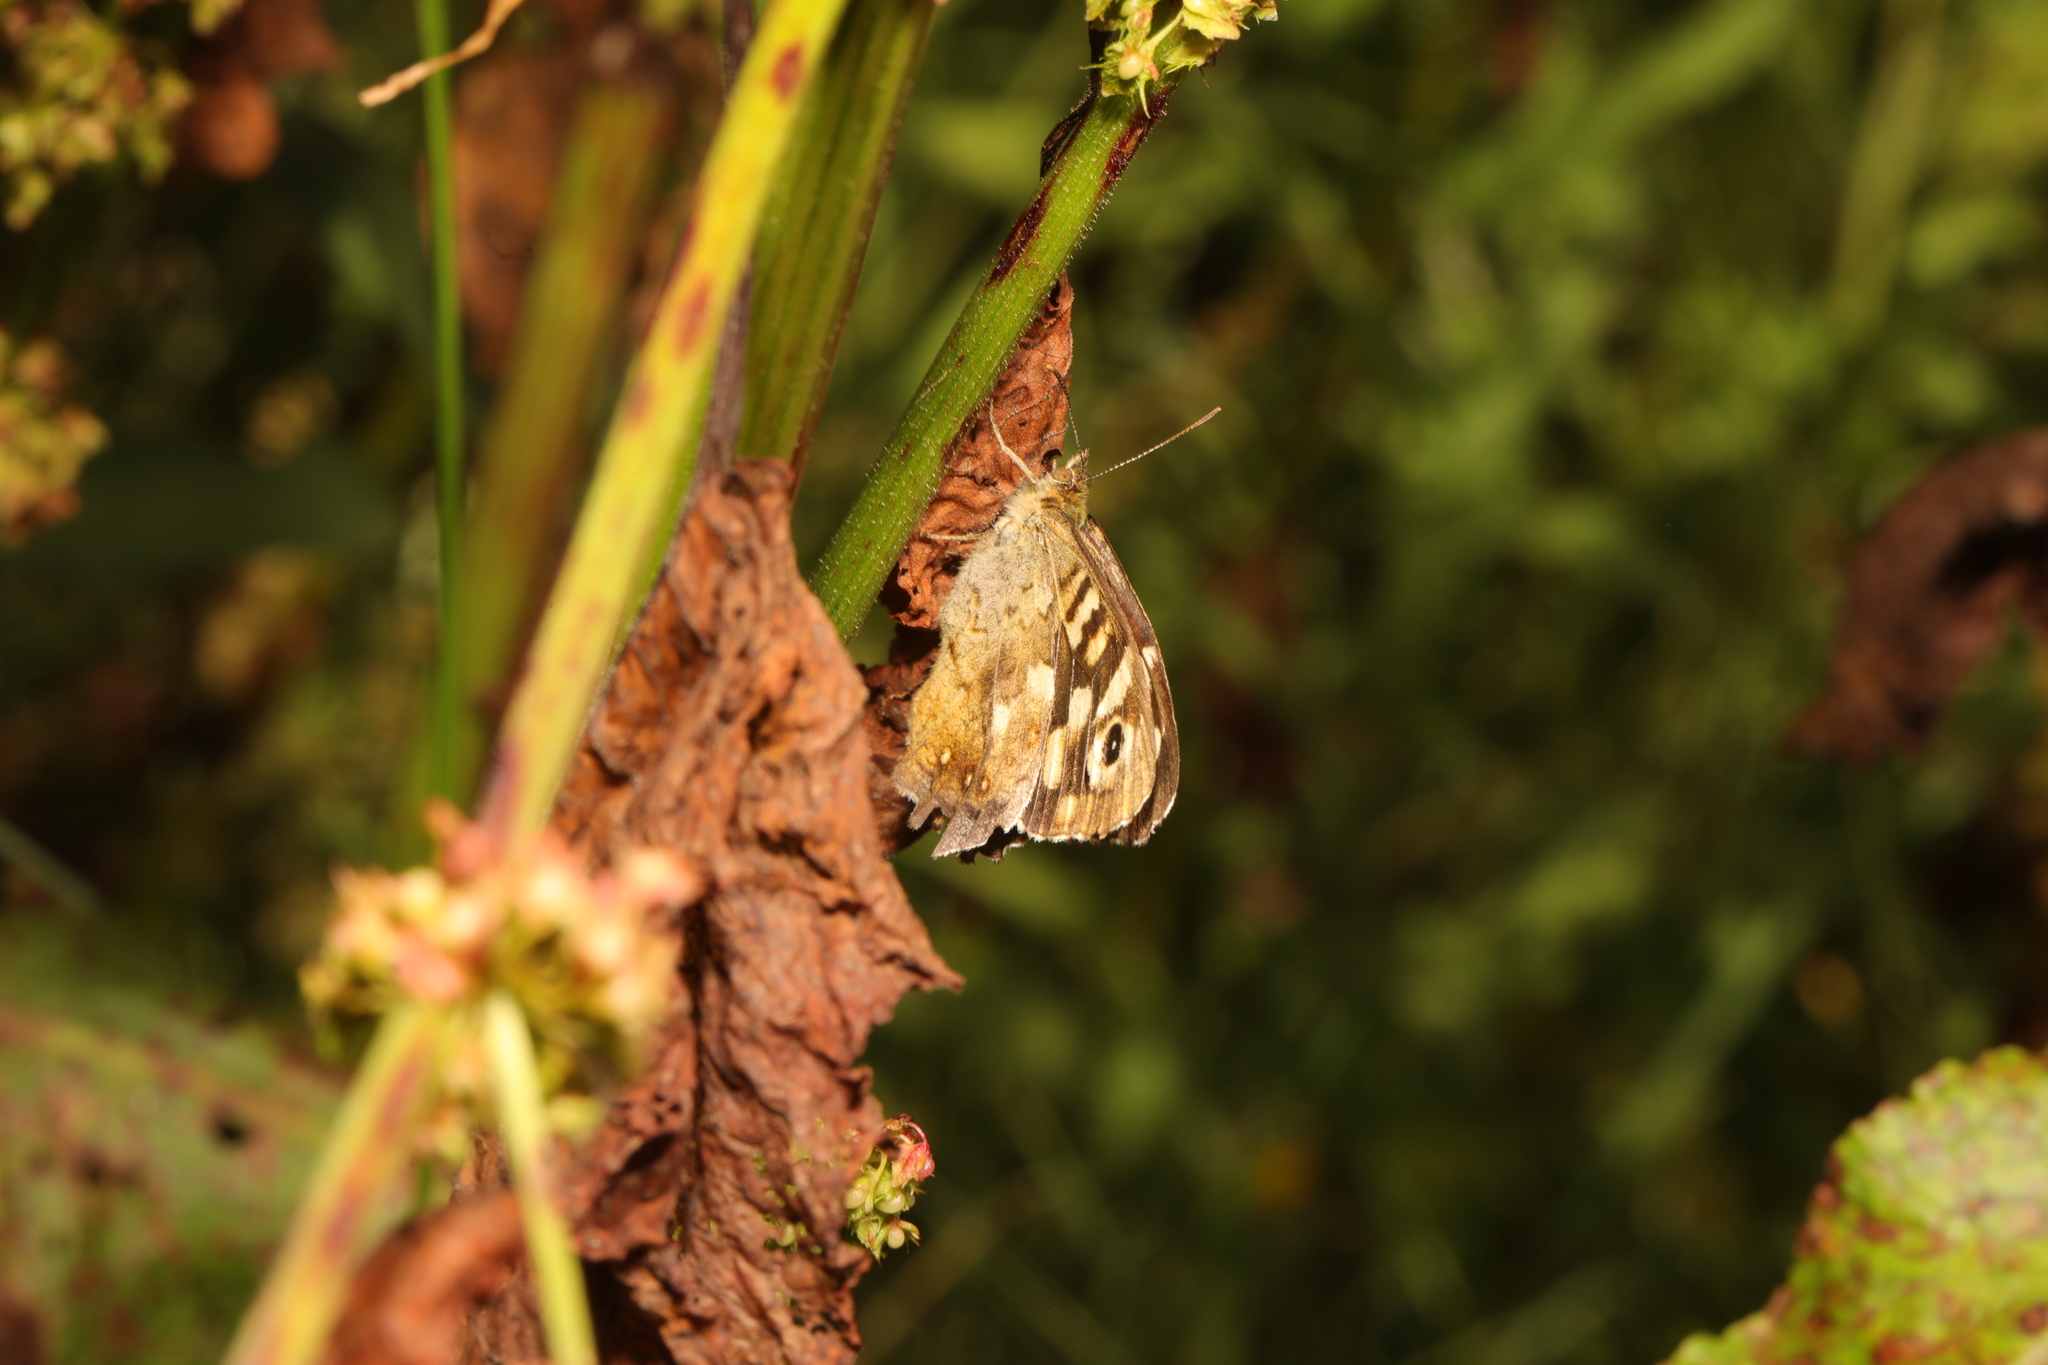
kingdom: Animalia
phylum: Arthropoda
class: Insecta
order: Lepidoptera
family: Nymphalidae
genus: Pararge
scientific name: Pararge aegeria
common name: Speckled wood
